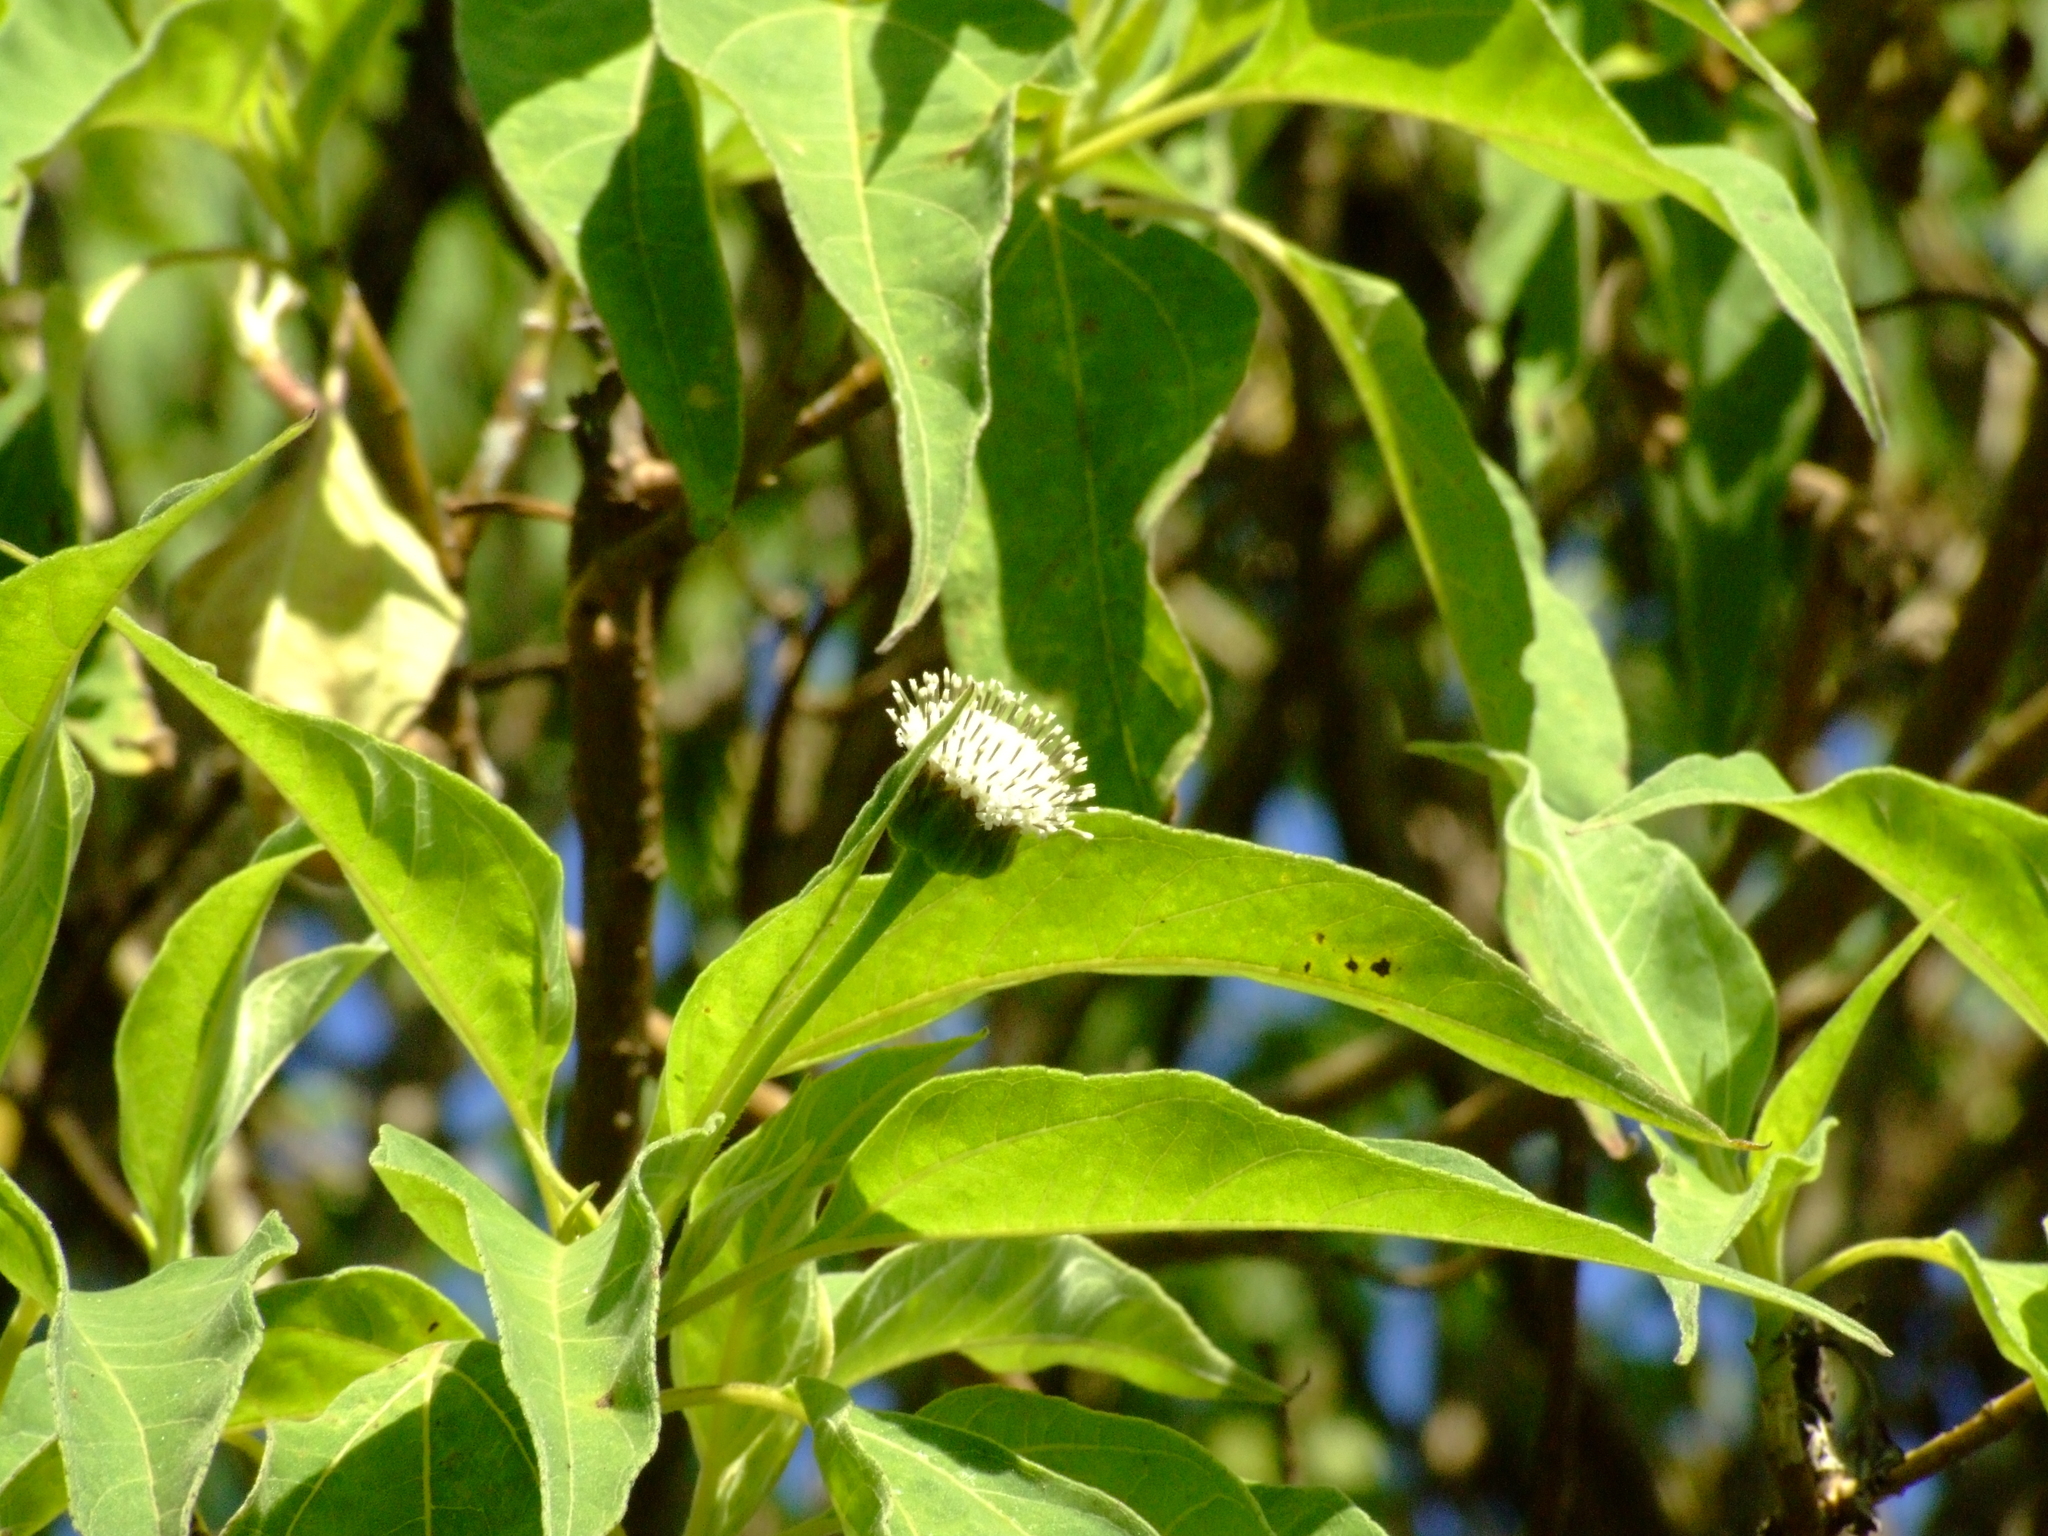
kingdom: Plantae
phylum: Tracheophyta
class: Magnoliopsida
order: Asterales
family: Asteraceae
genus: Scalesia
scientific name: Scalesia pedunculata
